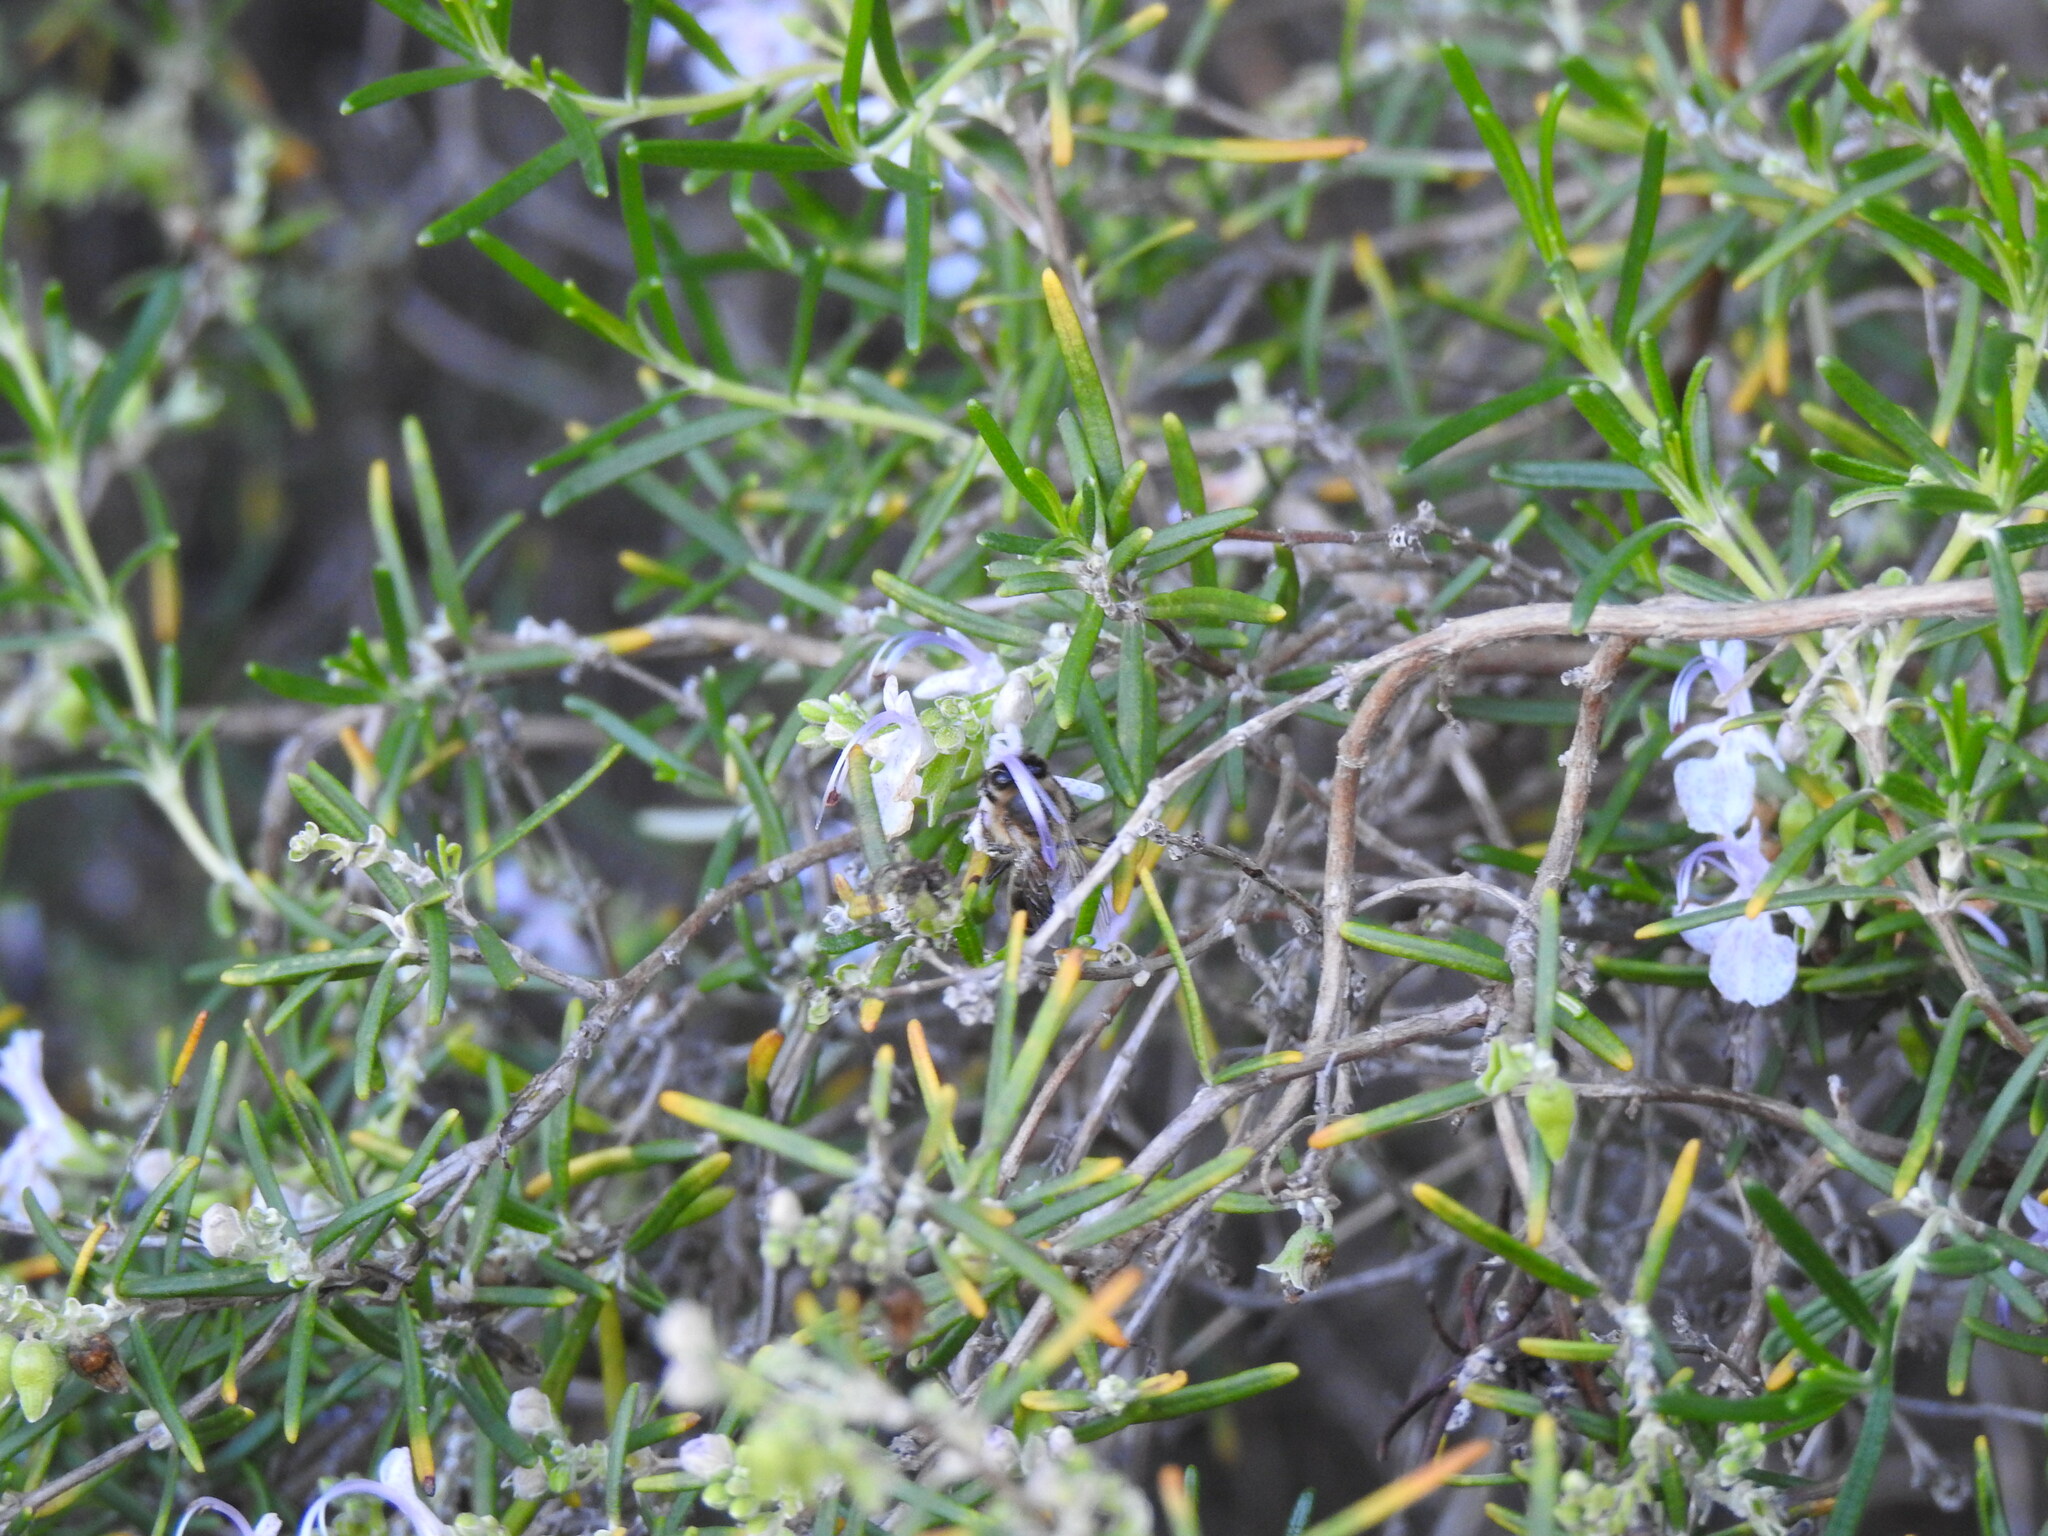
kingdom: Animalia
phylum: Arthropoda
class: Insecta
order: Hymenoptera
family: Apidae
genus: Apis
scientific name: Apis mellifera
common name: Honey bee
